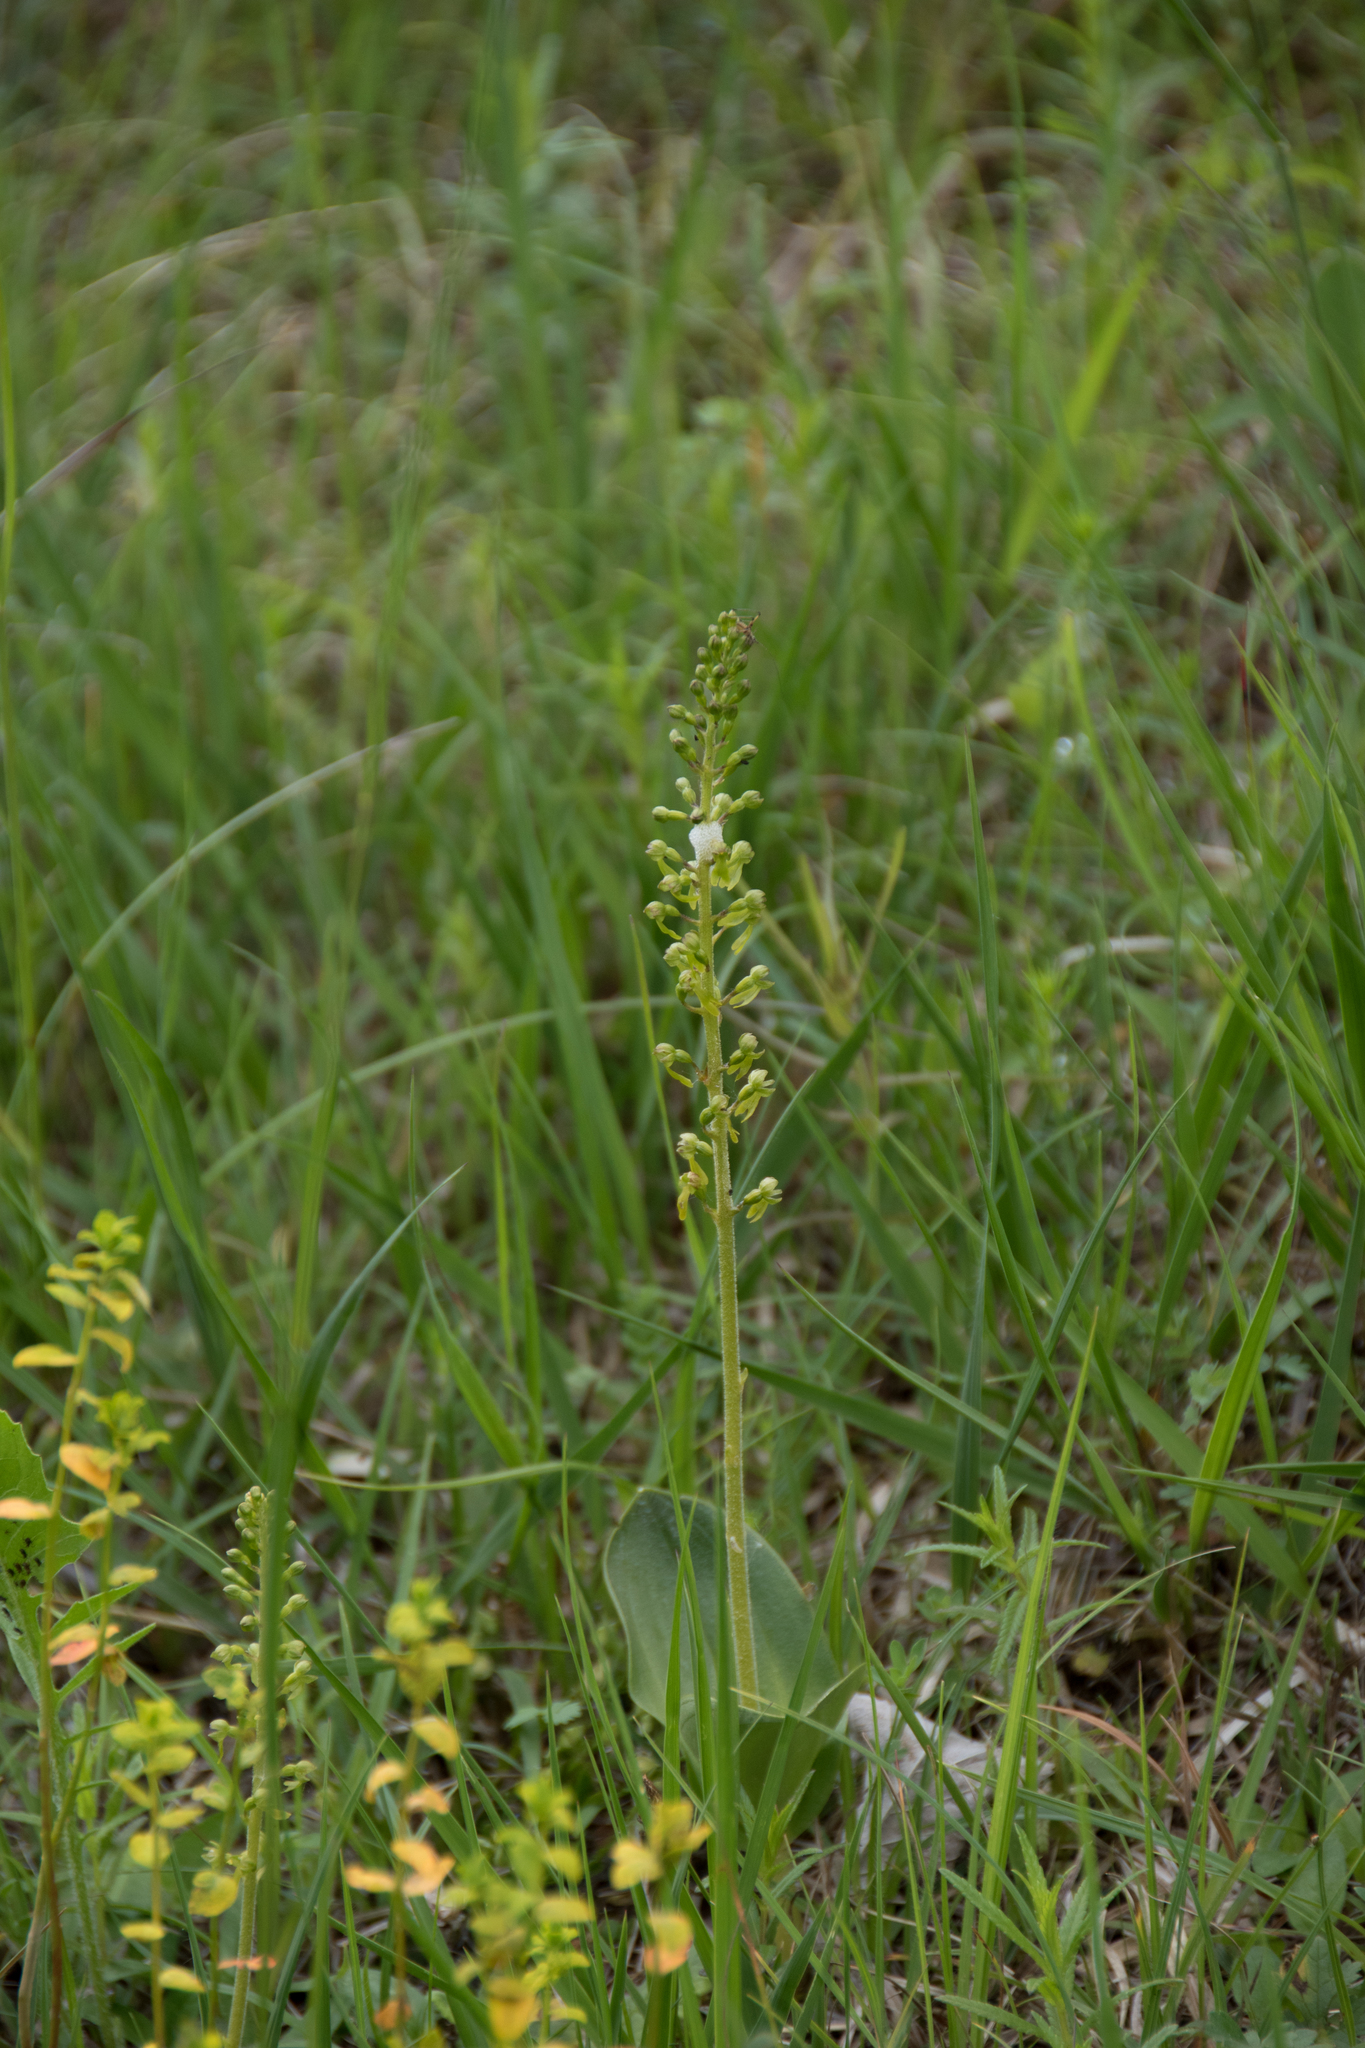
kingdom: Plantae
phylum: Tracheophyta
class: Liliopsida
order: Asparagales
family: Orchidaceae
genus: Neottia
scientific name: Neottia ovata
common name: Common twayblade
